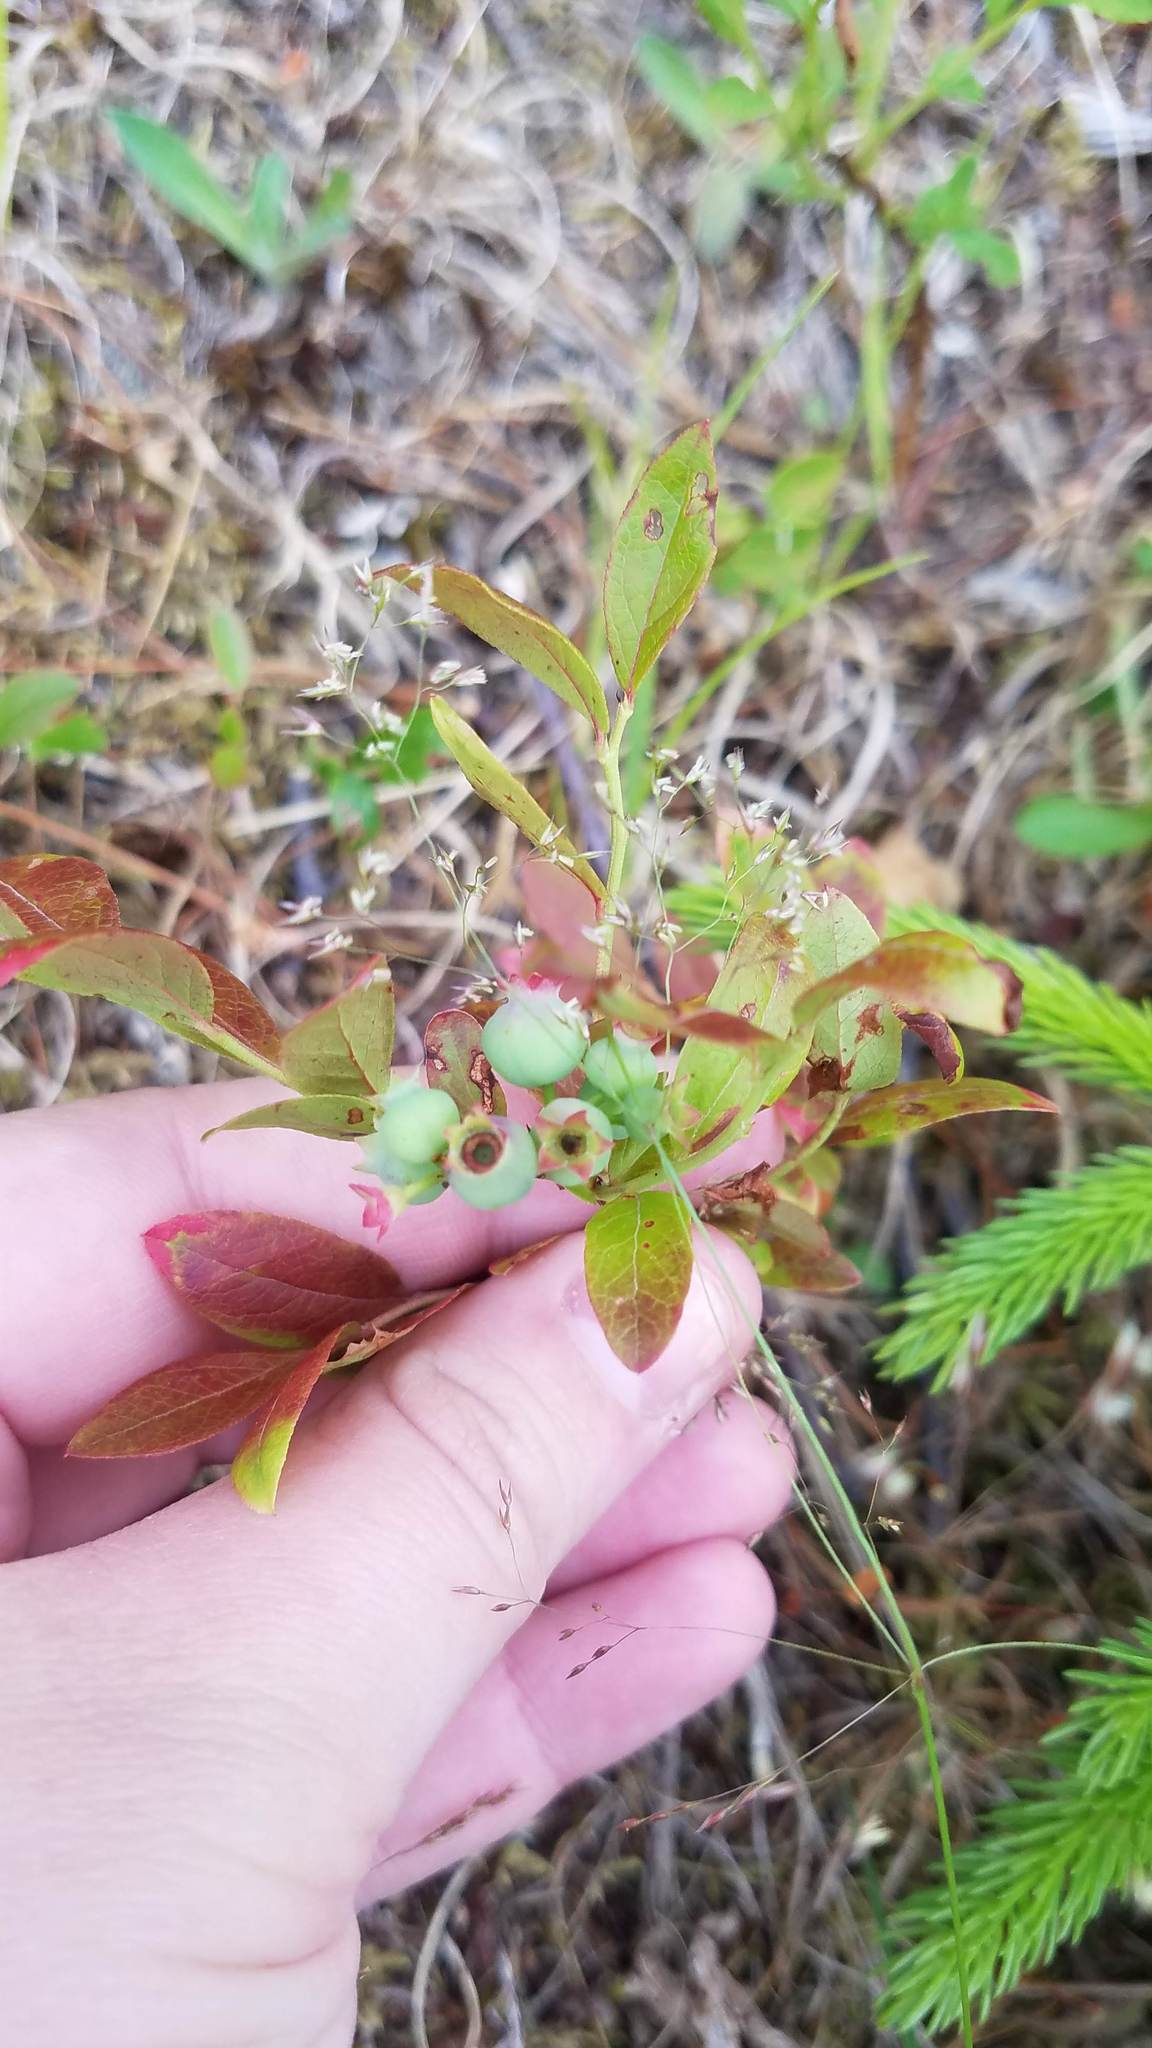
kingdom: Plantae
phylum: Tracheophyta
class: Magnoliopsida
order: Ericales
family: Ericaceae
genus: Vaccinium
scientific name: Vaccinium angustifolium
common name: Early lowbush blueberry
